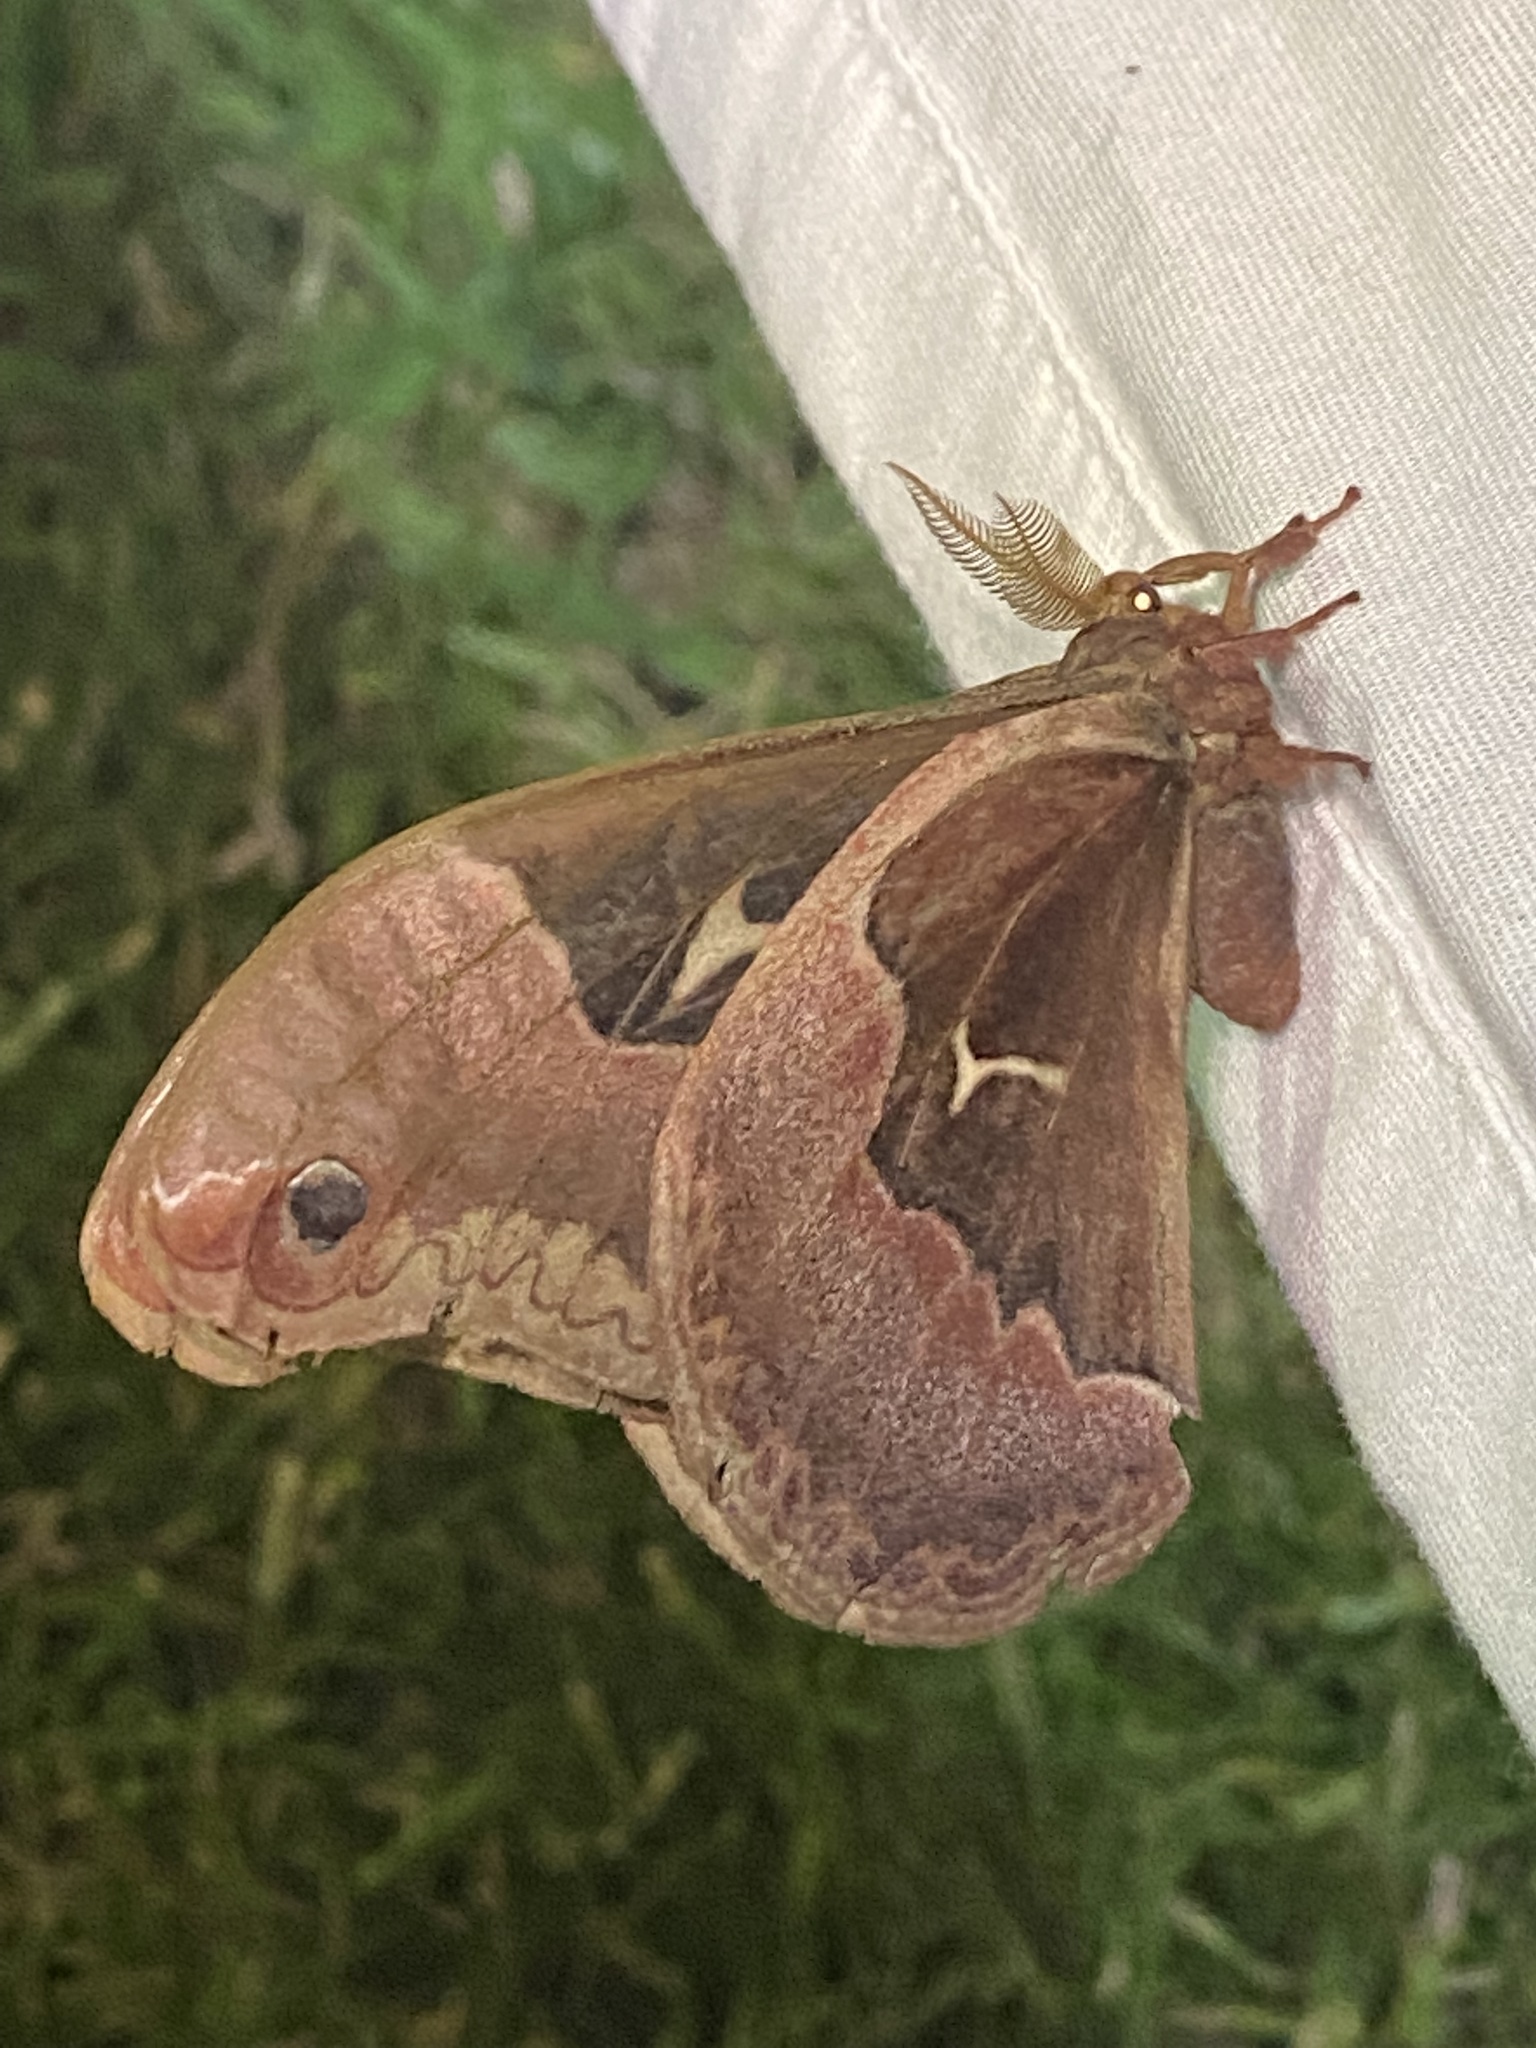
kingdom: Animalia
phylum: Arthropoda
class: Insecta
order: Lepidoptera
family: Saturniidae
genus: Callosamia
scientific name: Callosamia angulifera
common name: Tulip tree silkmoth
